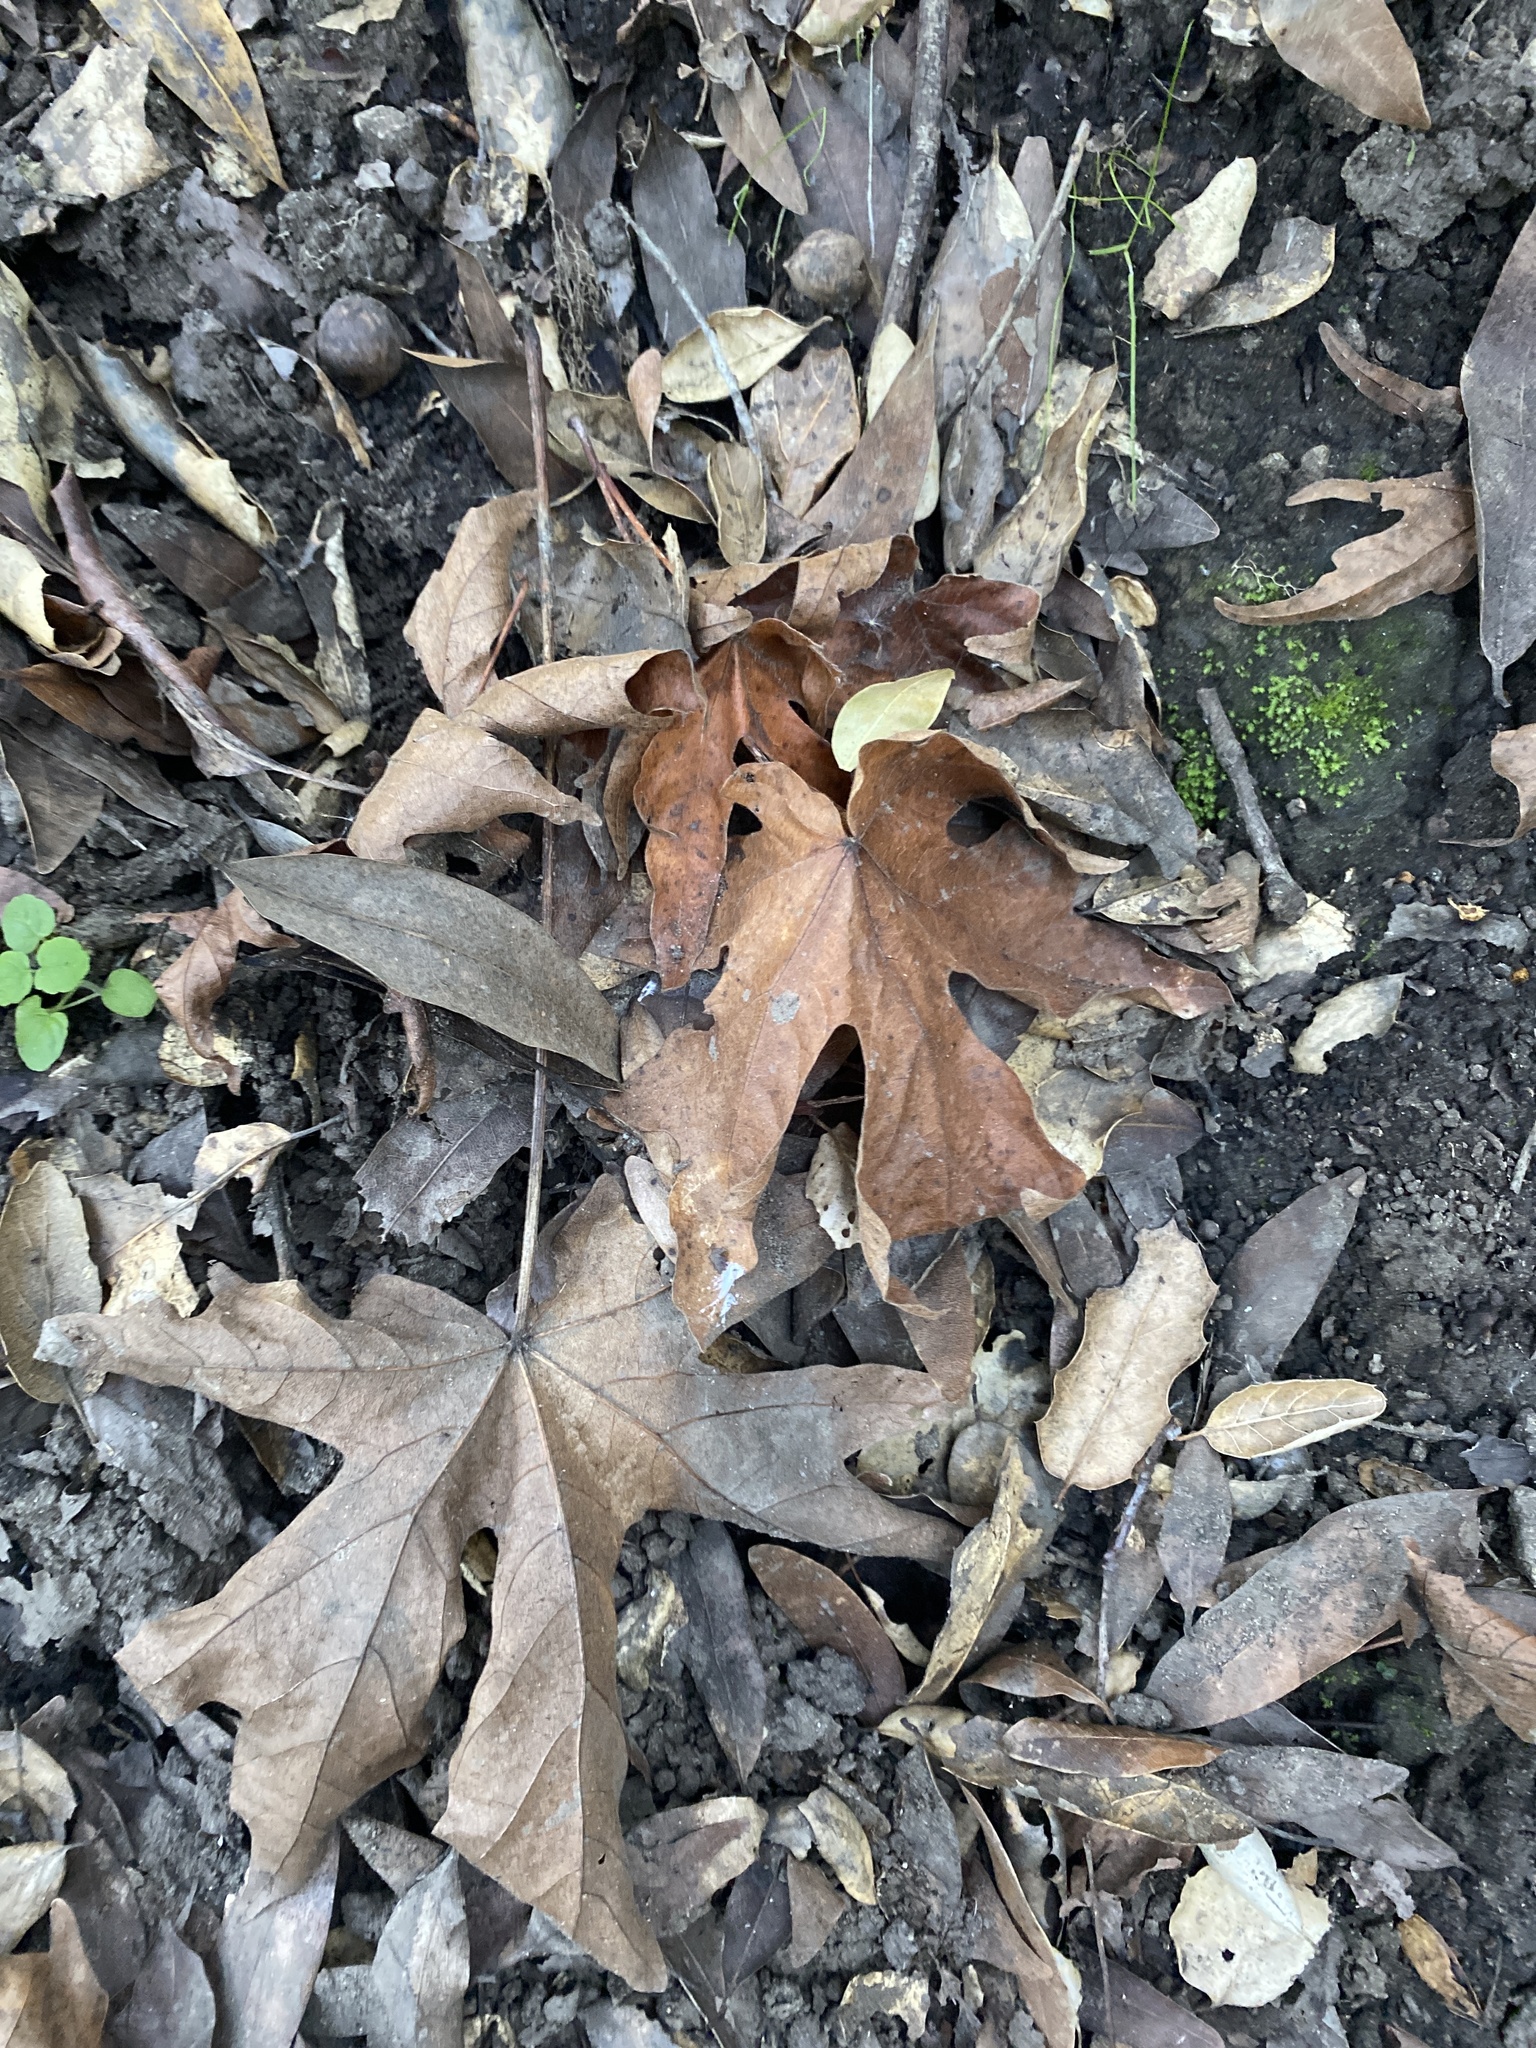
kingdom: Plantae
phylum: Tracheophyta
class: Magnoliopsida
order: Sapindales
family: Sapindaceae
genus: Acer
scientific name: Acer macrophyllum
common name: Oregon maple
